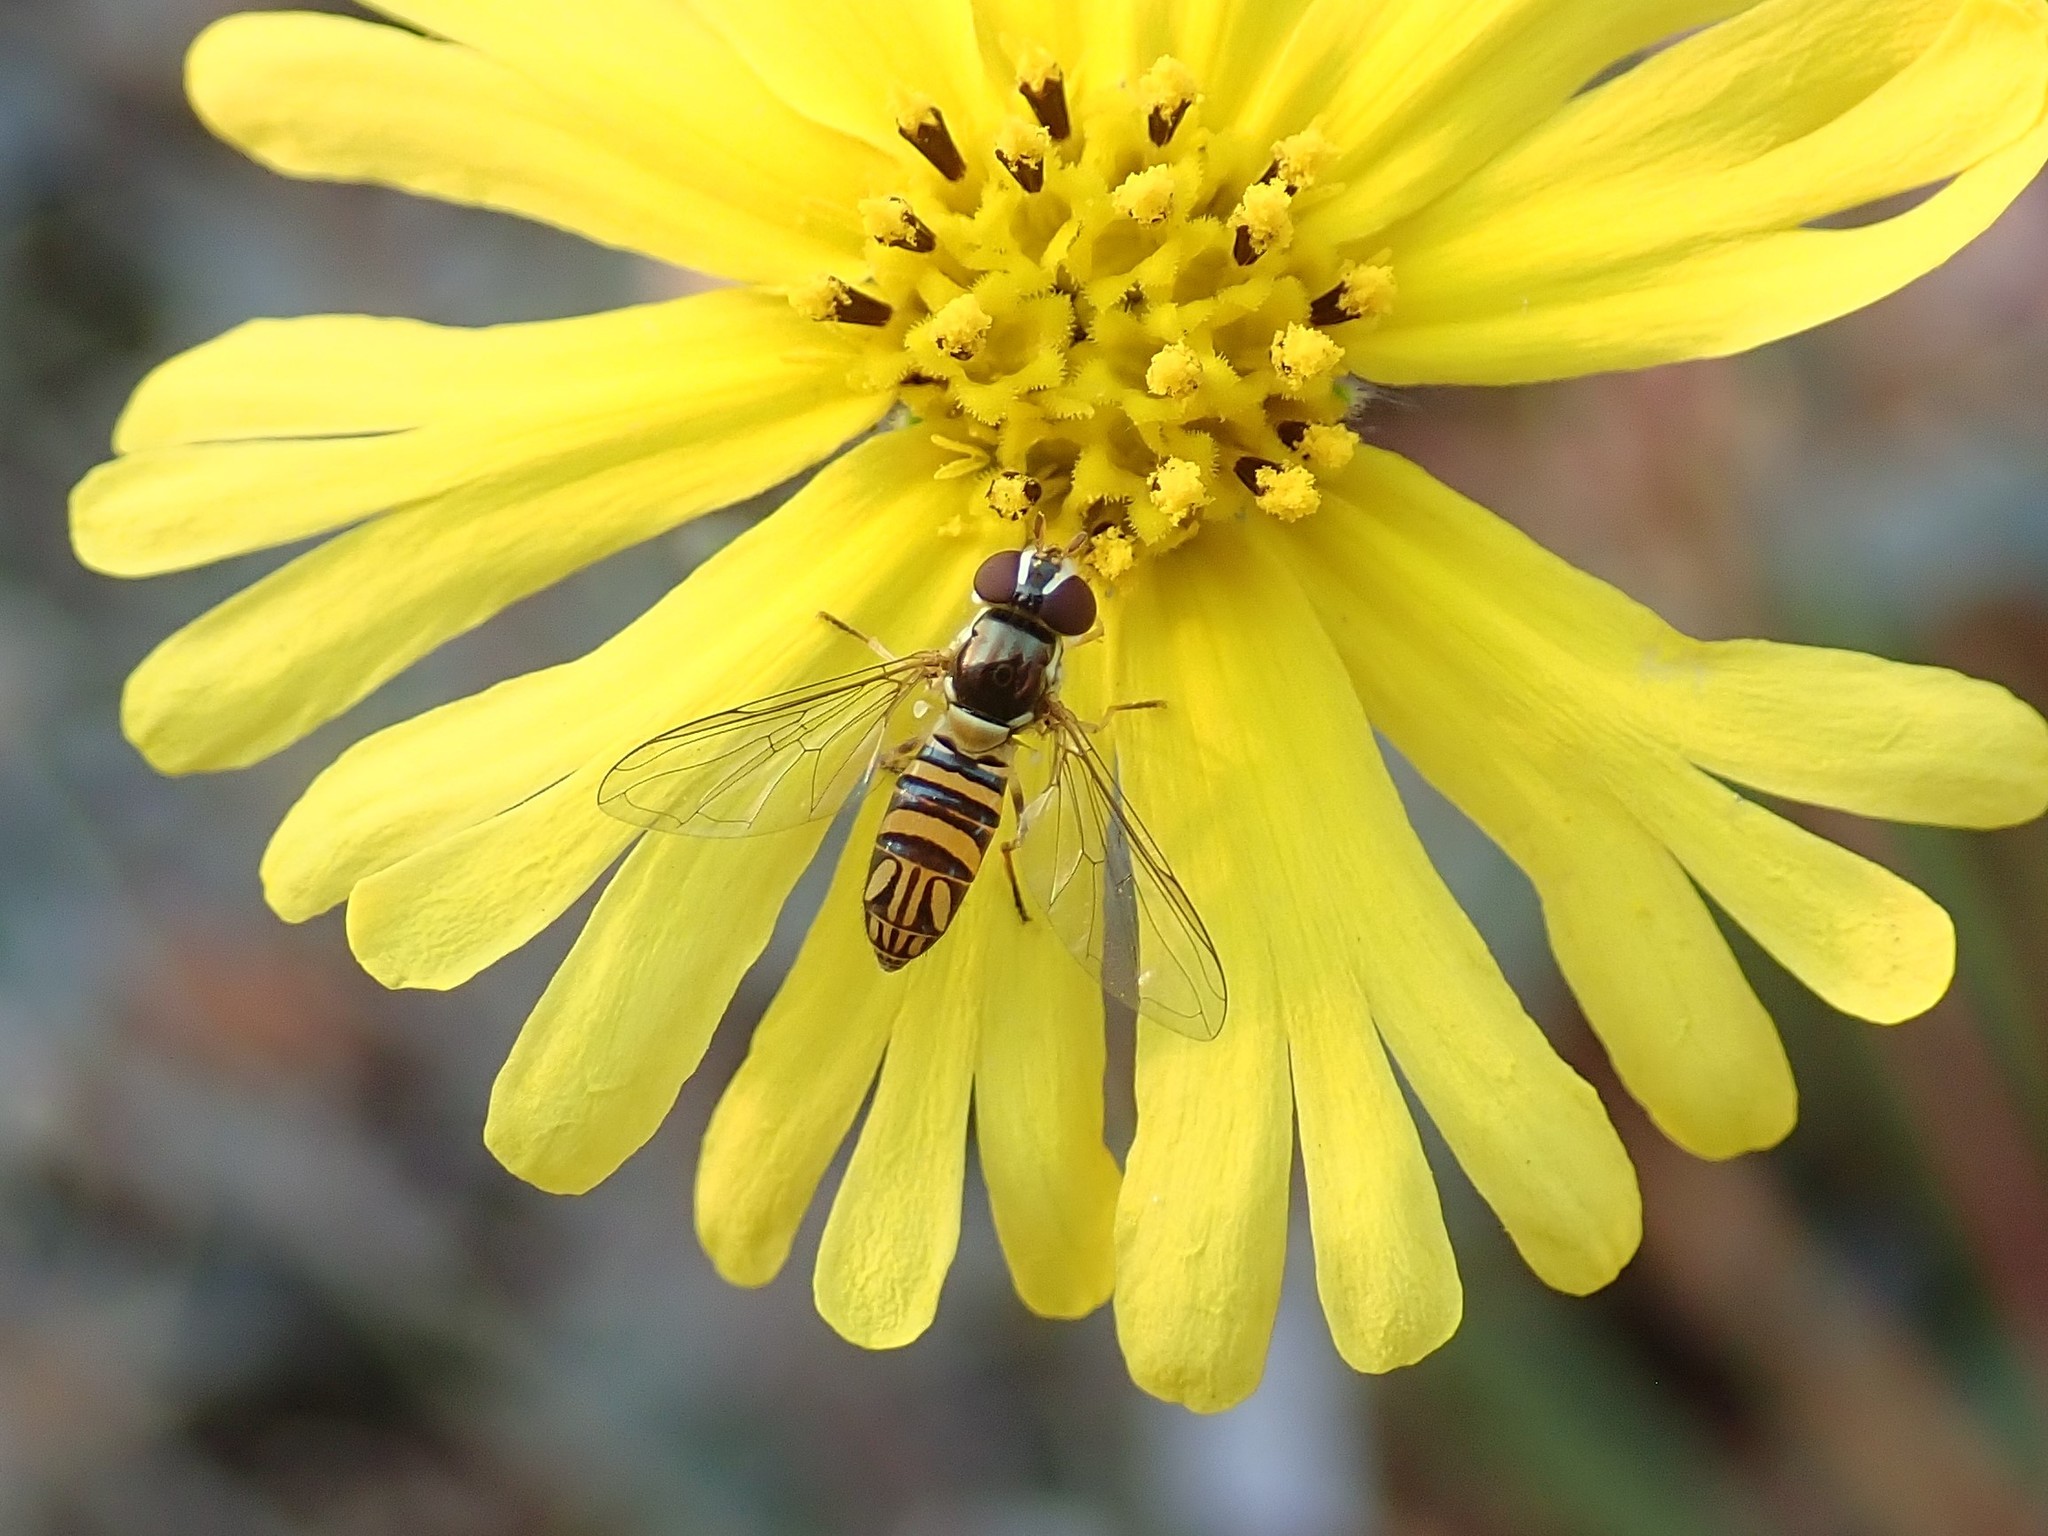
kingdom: Animalia
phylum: Arthropoda
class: Insecta
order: Diptera
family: Syrphidae
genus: Allograpta
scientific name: Allograpta obliqua
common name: Common oblique syrphid
